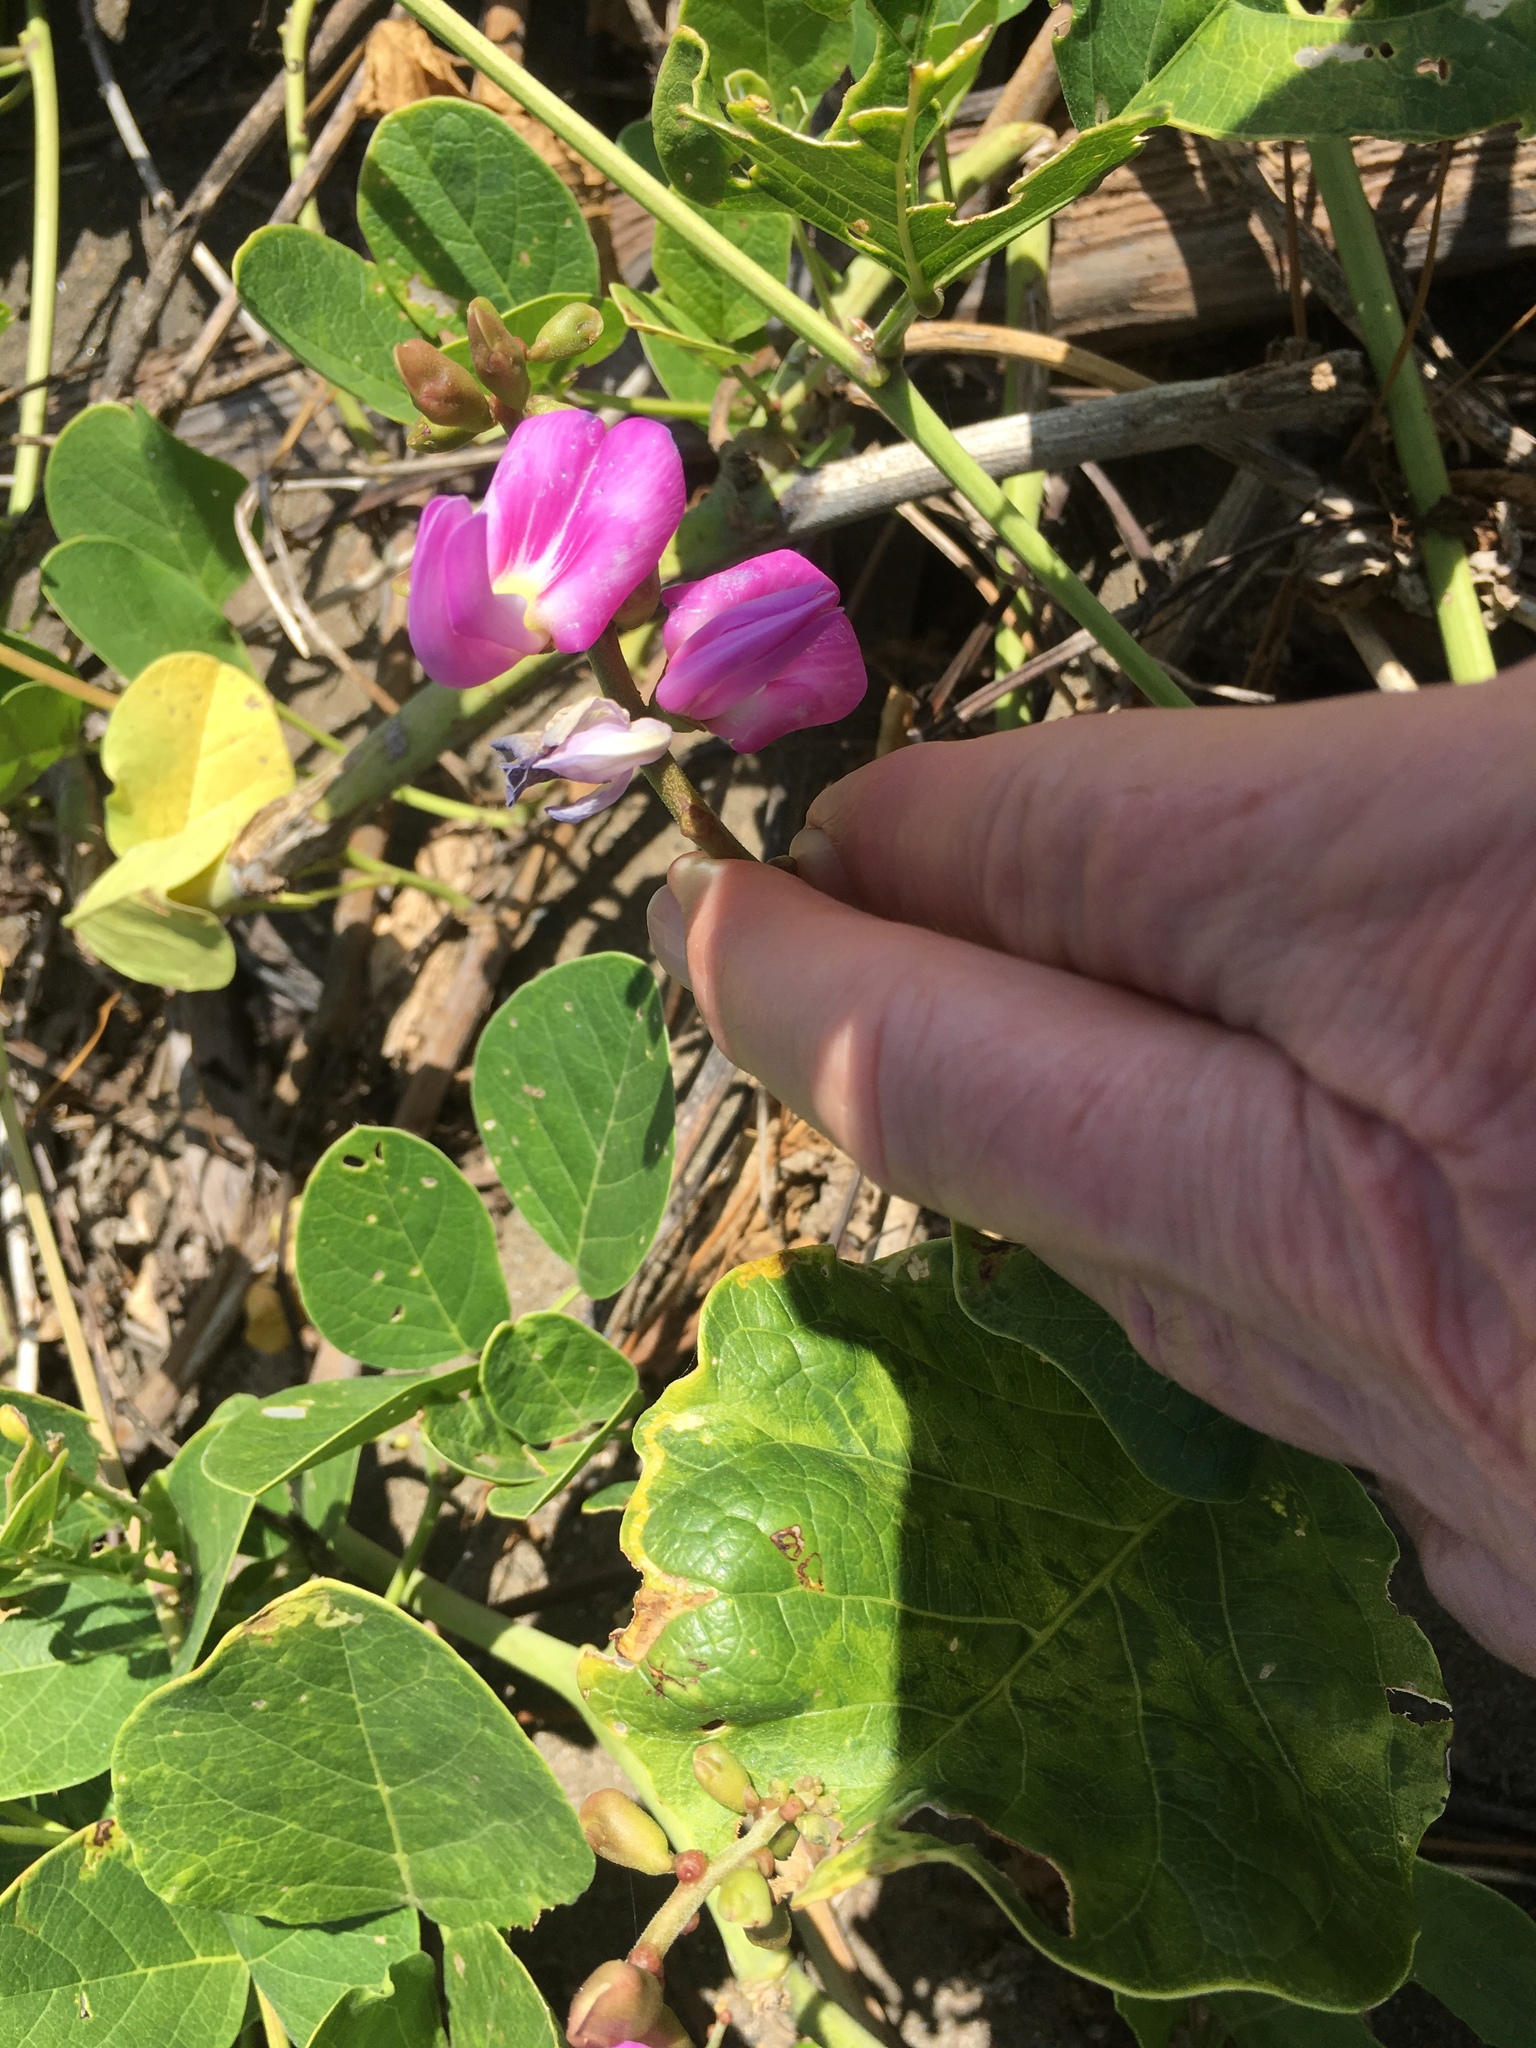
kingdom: Plantae
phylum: Tracheophyta
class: Magnoliopsida
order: Fabales
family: Fabaceae
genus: Canavalia
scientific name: Canavalia rosea
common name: Beach-bean
